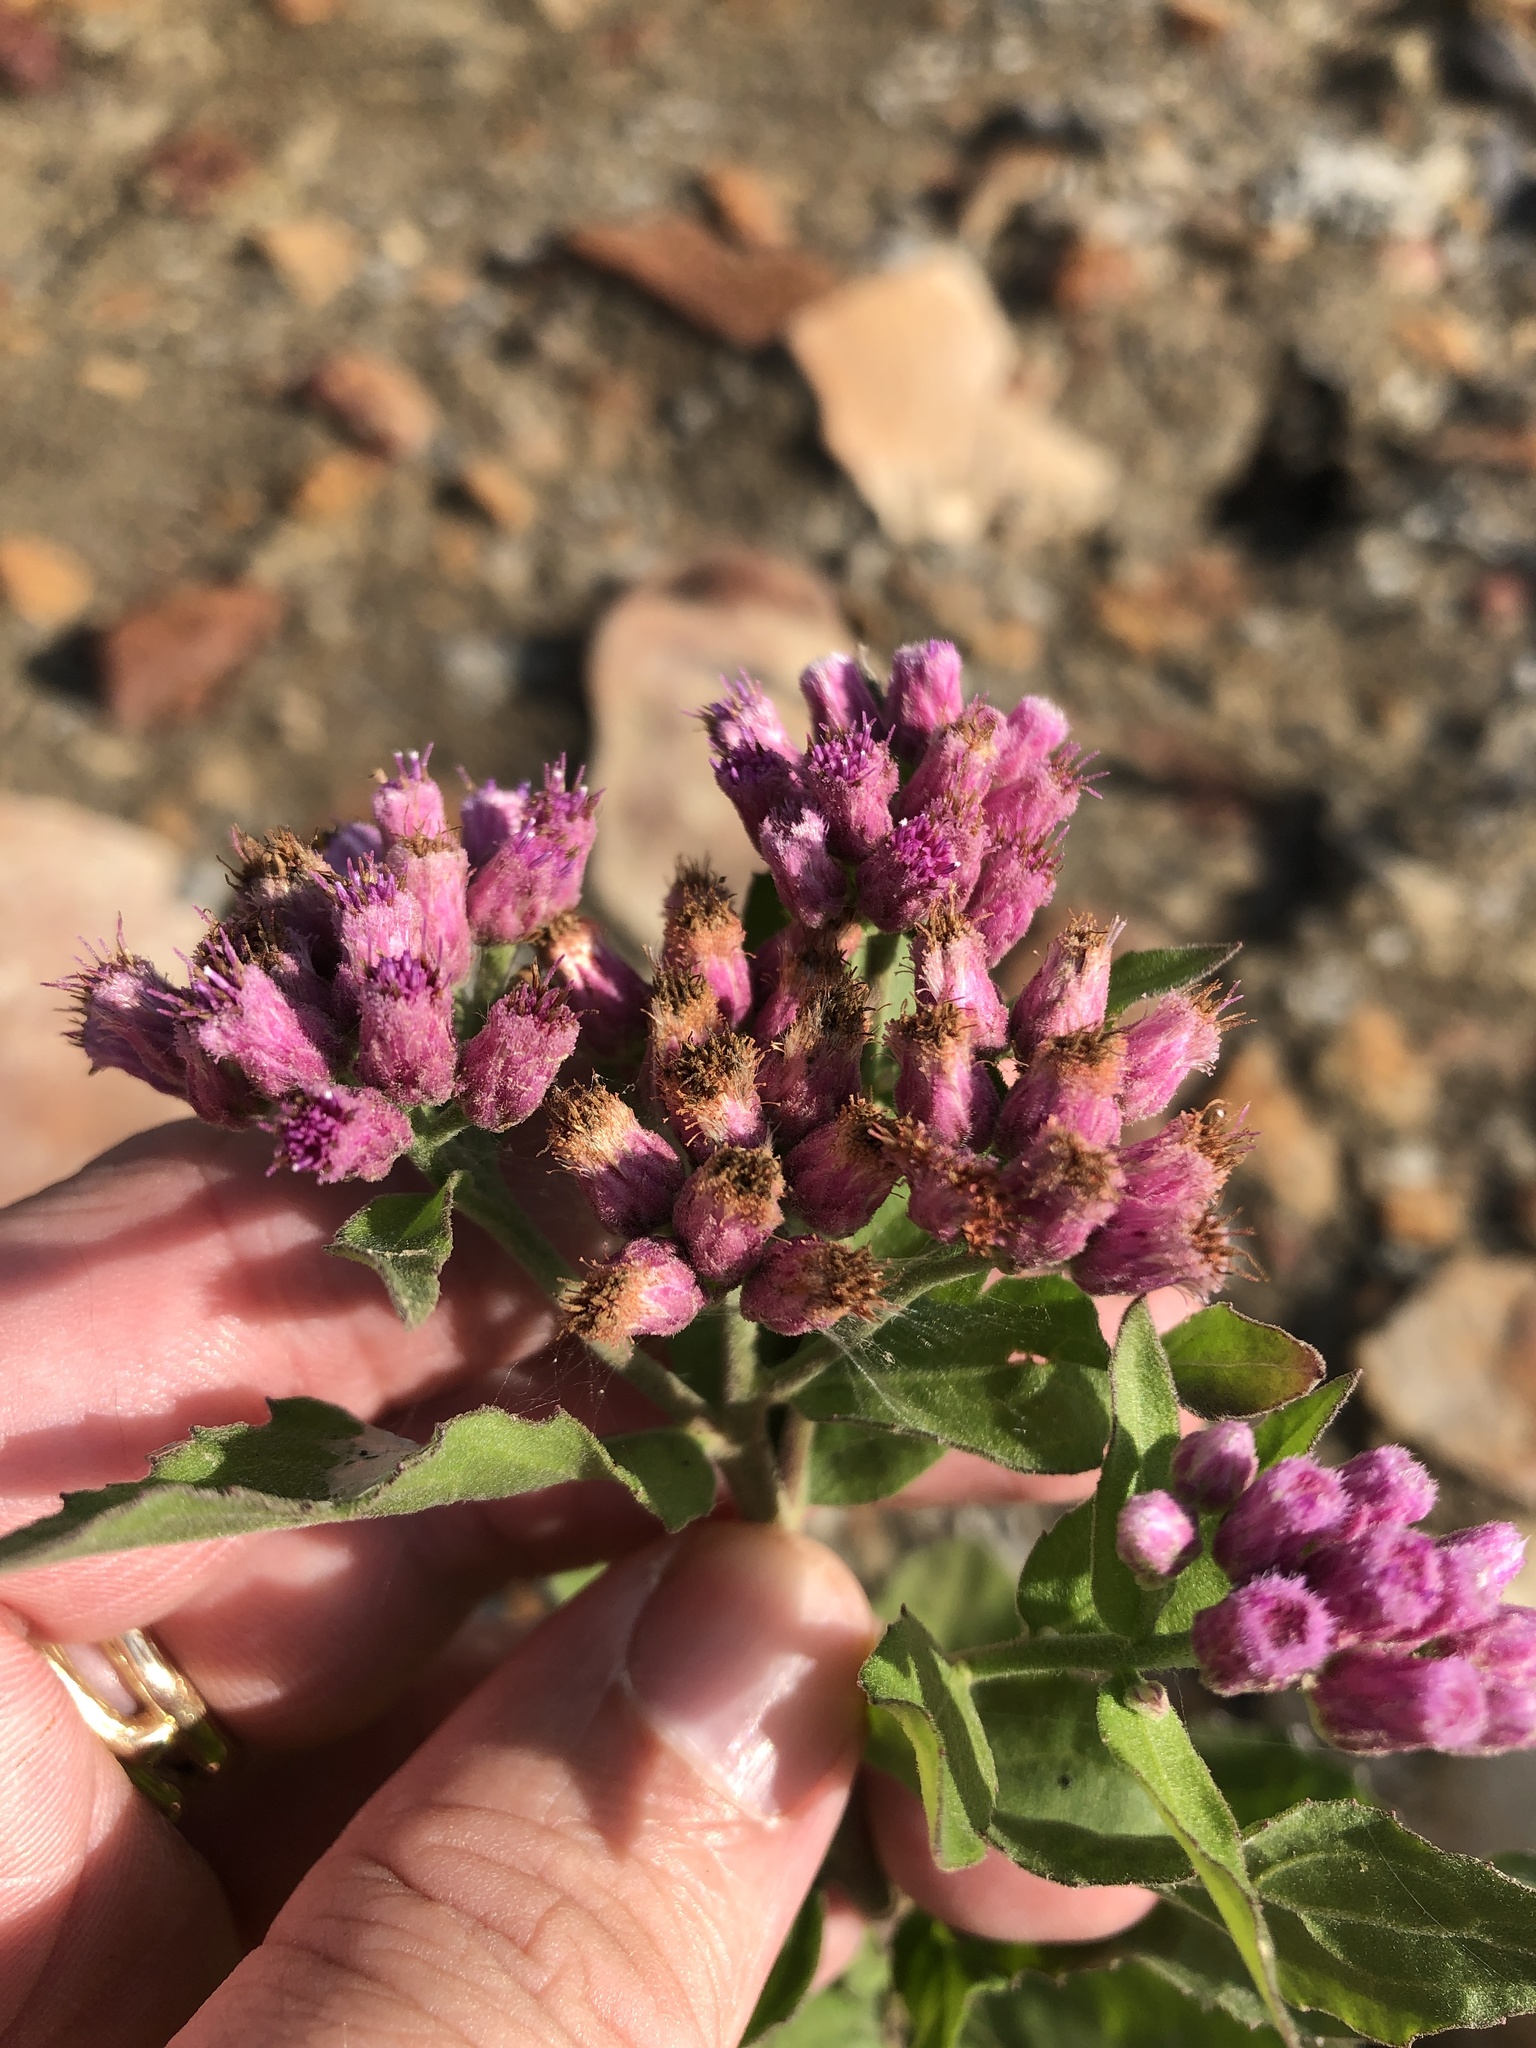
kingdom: Plantae
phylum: Tracheophyta
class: Magnoliopsida
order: Asterales
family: Asteraceae
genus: Pluchea
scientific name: Pluchea odorata
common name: Saltmarsh fleabane
